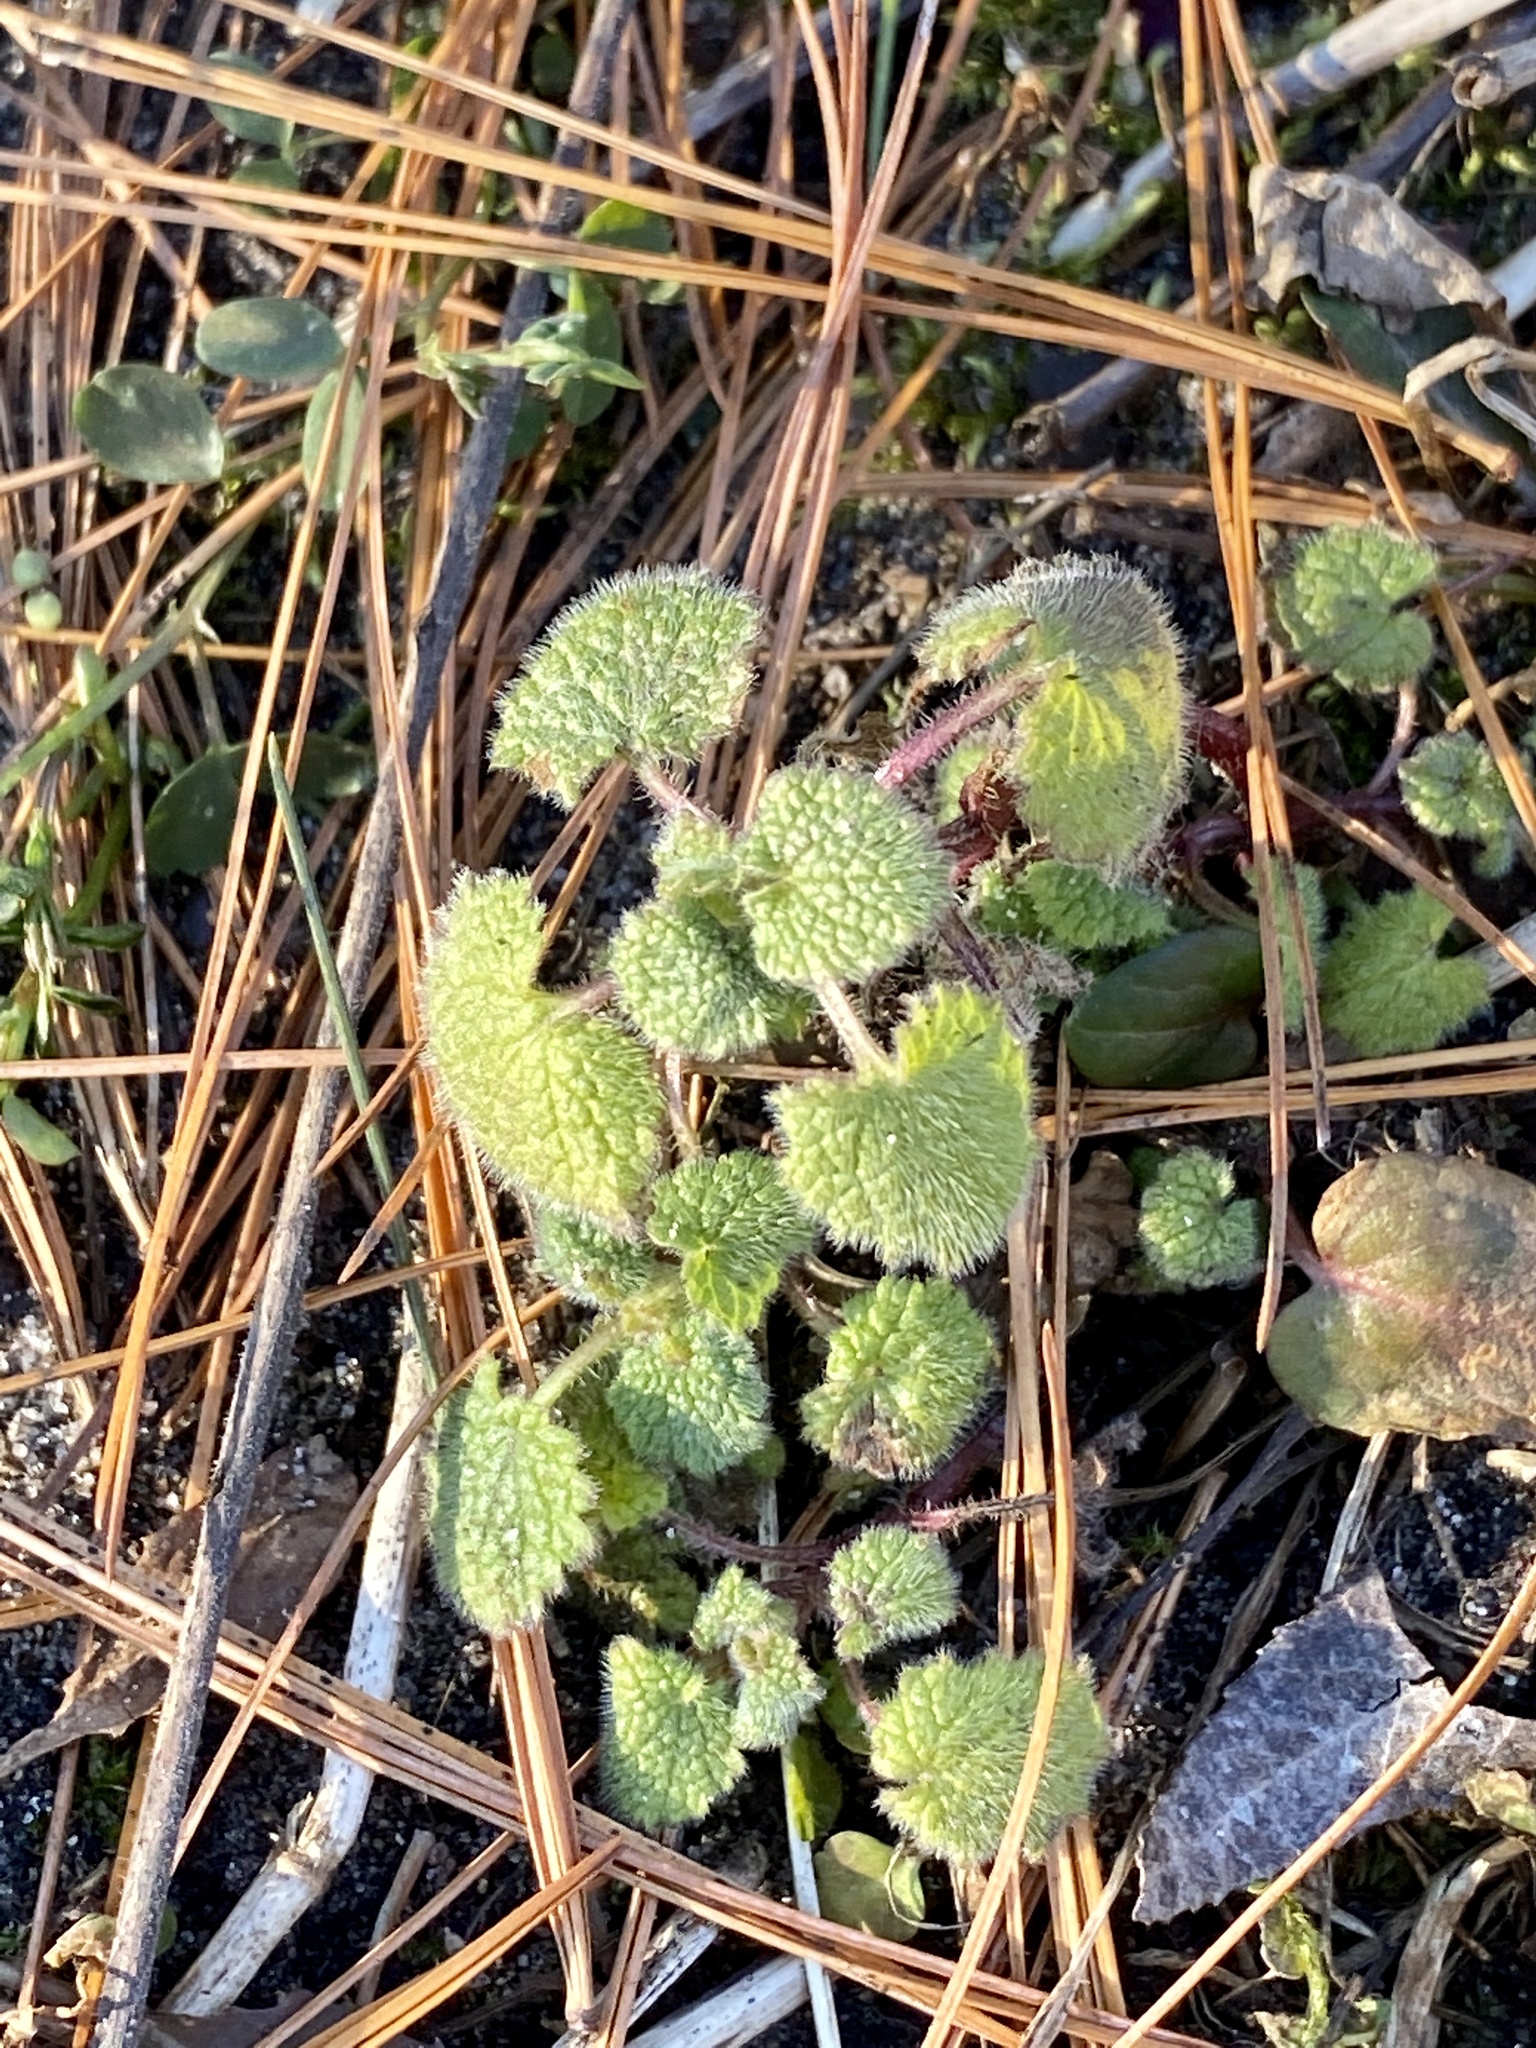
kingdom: Plantae
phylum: Tracheophyta
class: Magnoliopsida
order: Lamiales
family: Lamiaceae
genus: Lamium
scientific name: Lamium purpureum
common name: Red dead-nettle
